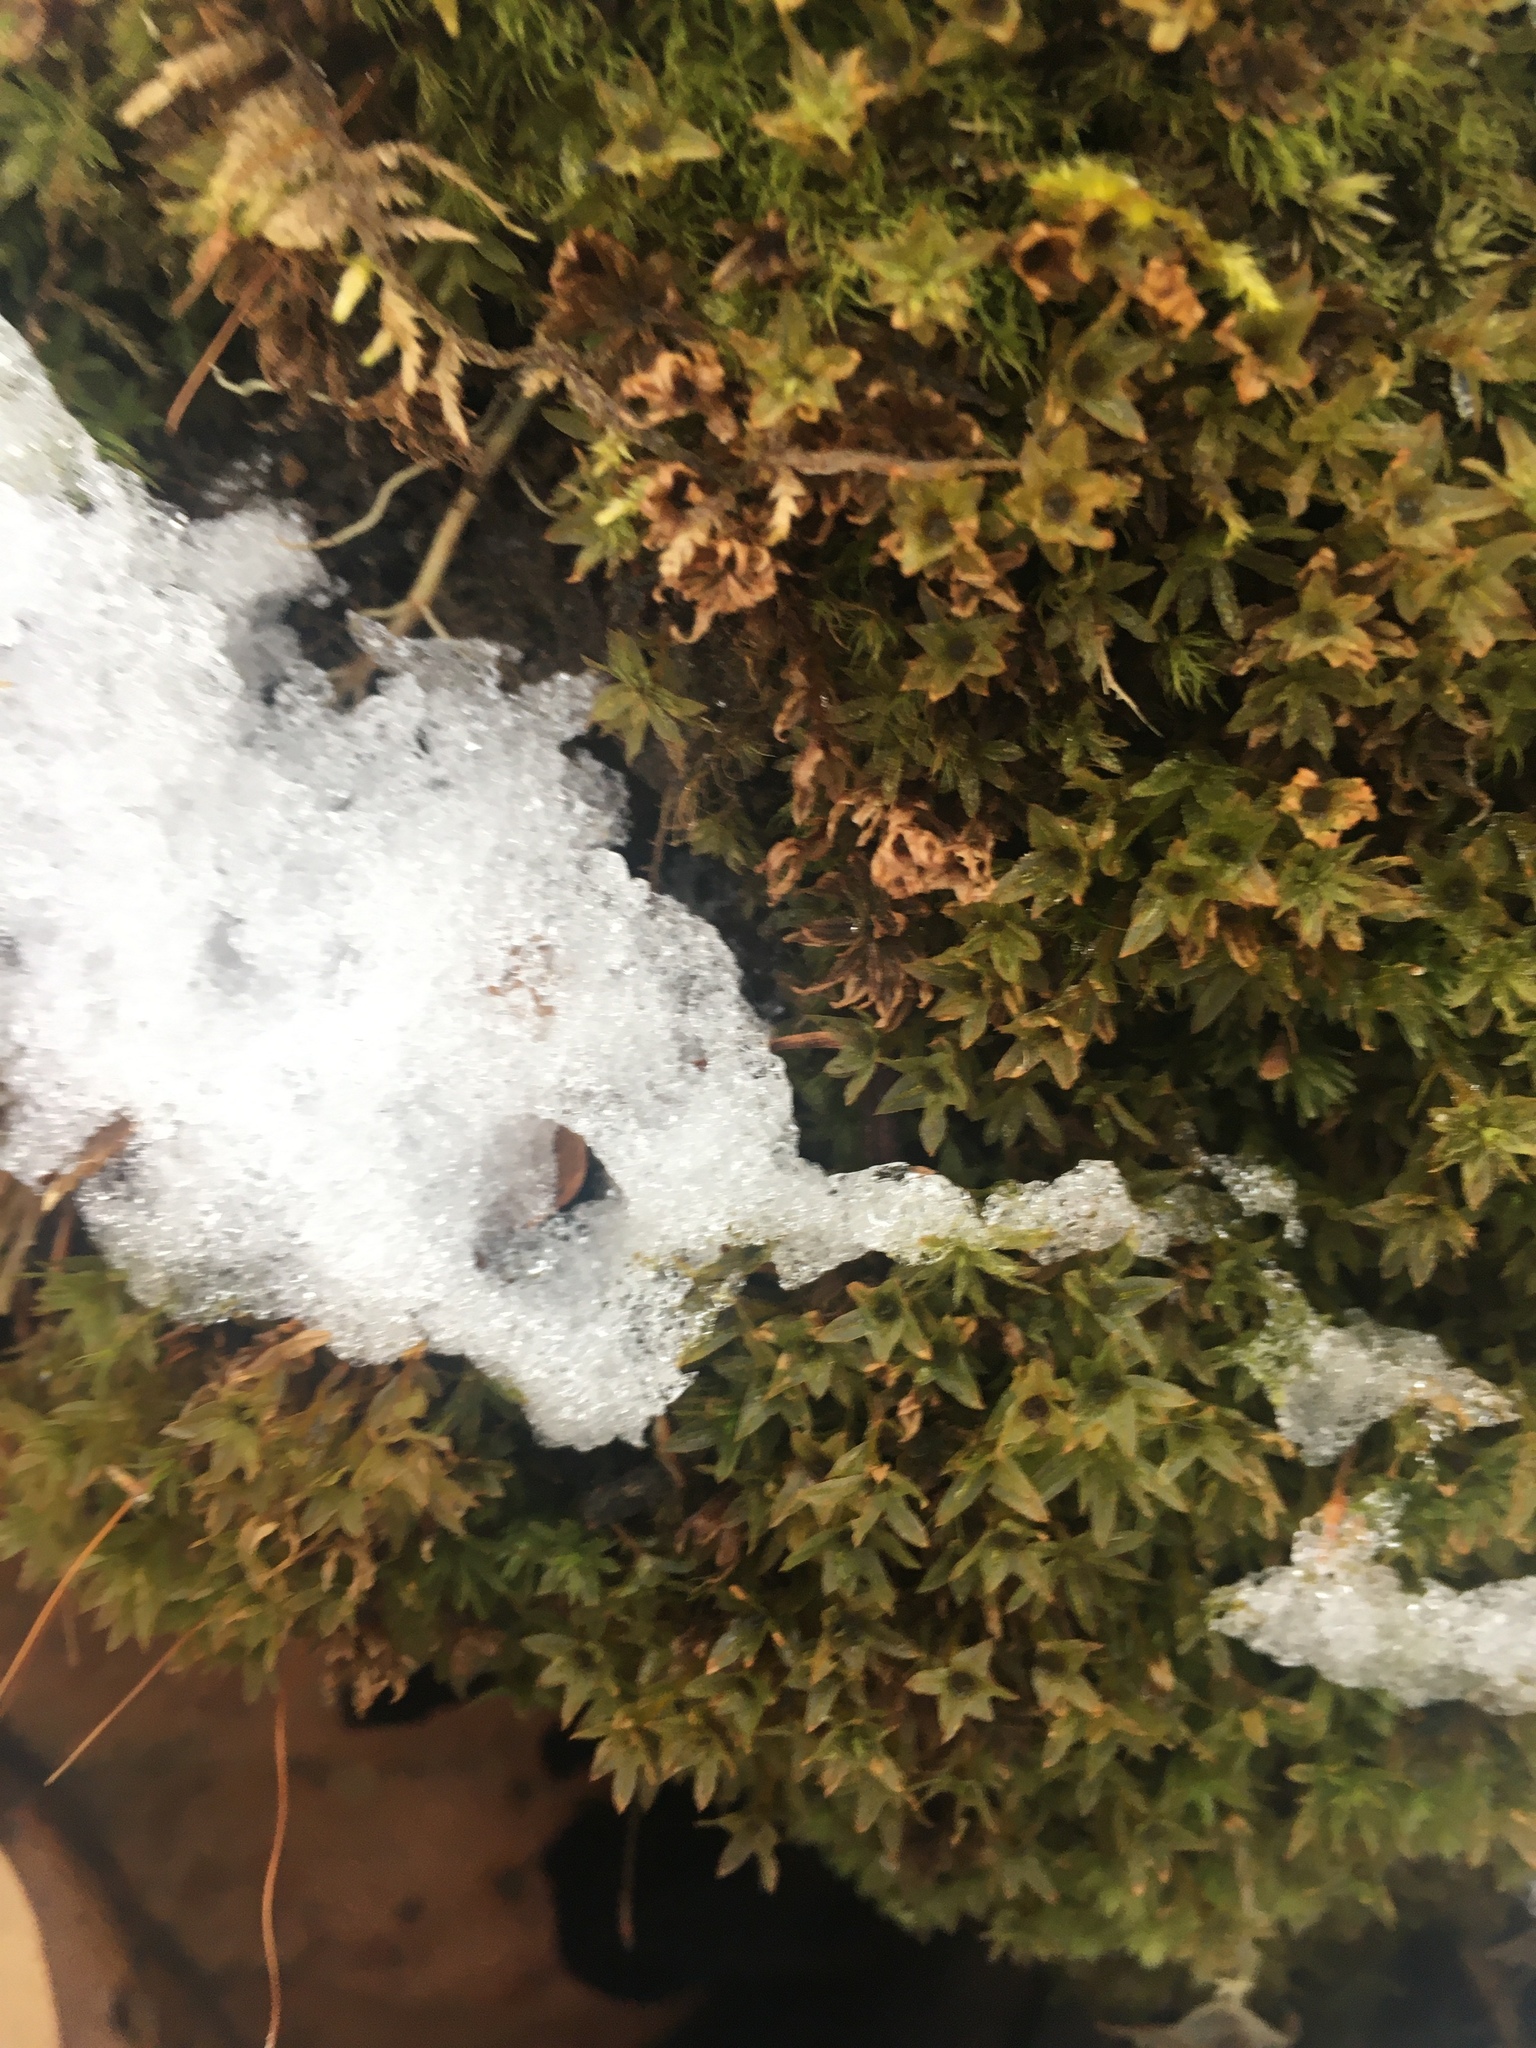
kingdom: Plantae
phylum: Bryophyta
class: Polytrichopsida
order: Polytrichales
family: Polytrichaceae
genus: Atrichum
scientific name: Atrichum undulatum
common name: Common smoothcap
